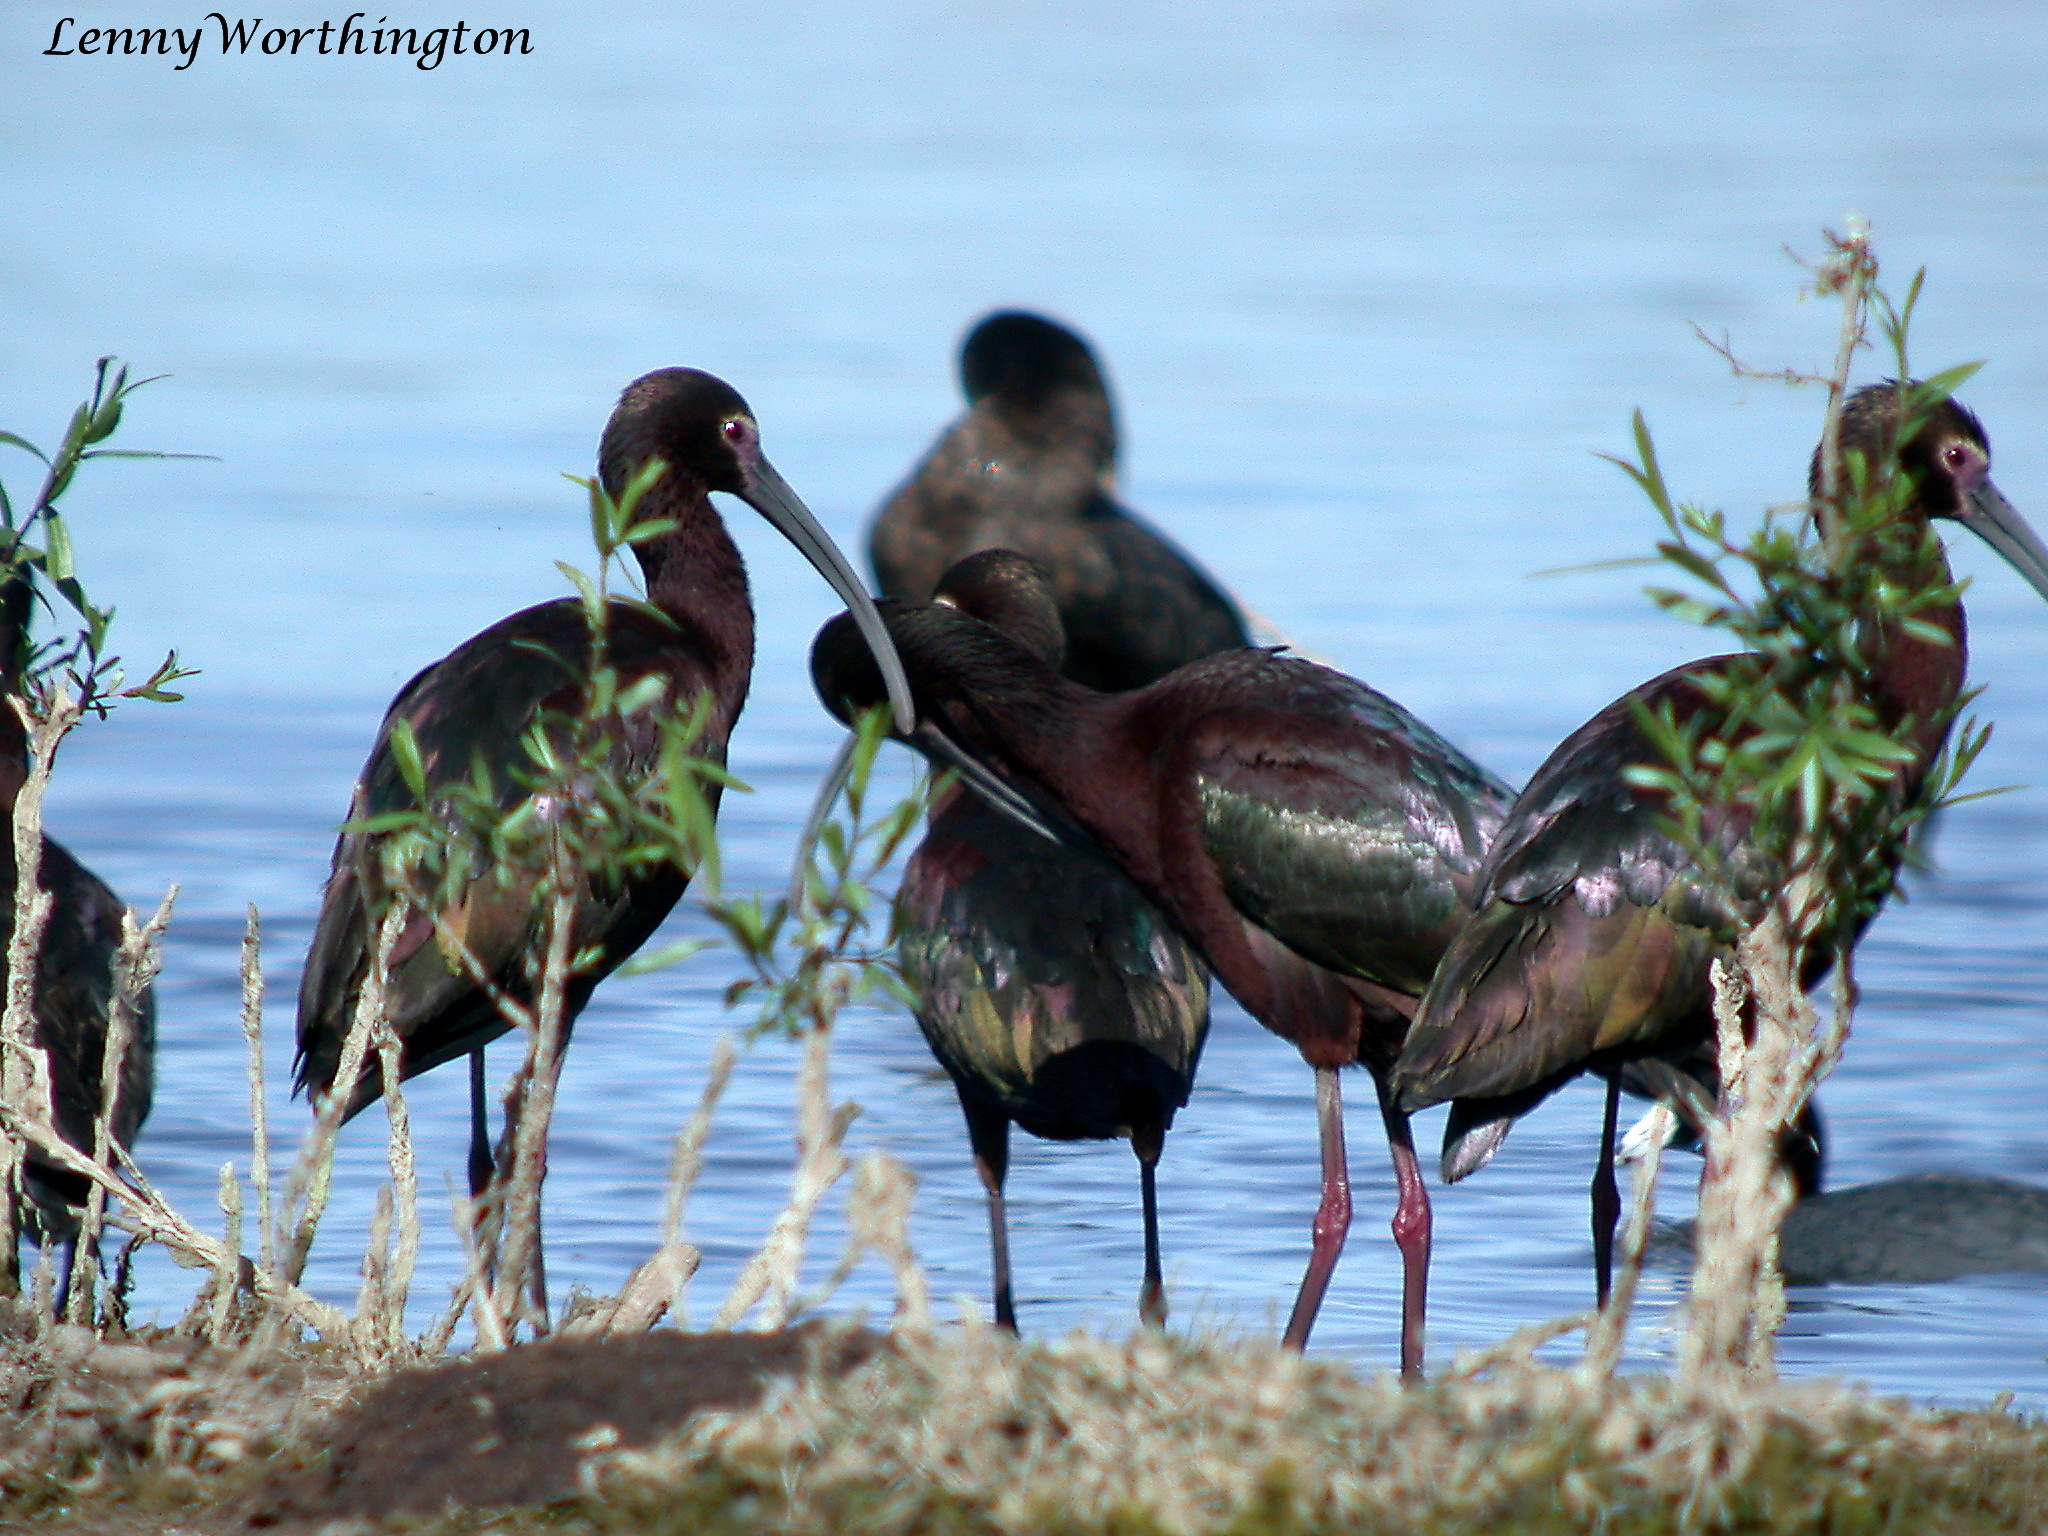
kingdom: Animalia
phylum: Chordata
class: Aves
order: Pelecaniformes
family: Threskiornithidae
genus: Plegadis
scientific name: Plegadis chihi
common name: White-faced ibis
